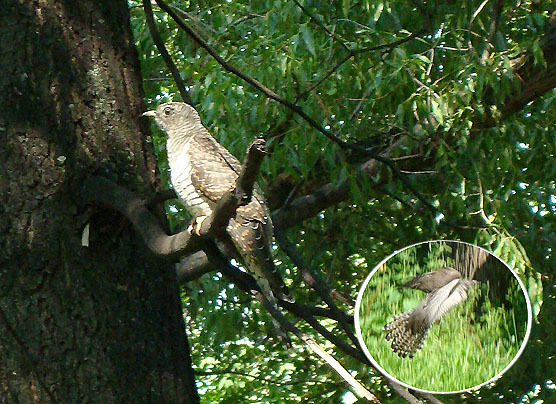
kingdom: Animalia
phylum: Chordata
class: Aves
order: Cuculiformes
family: Cuculidae
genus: Cuculus
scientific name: Cuculus canorus
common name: Common cuckoo
